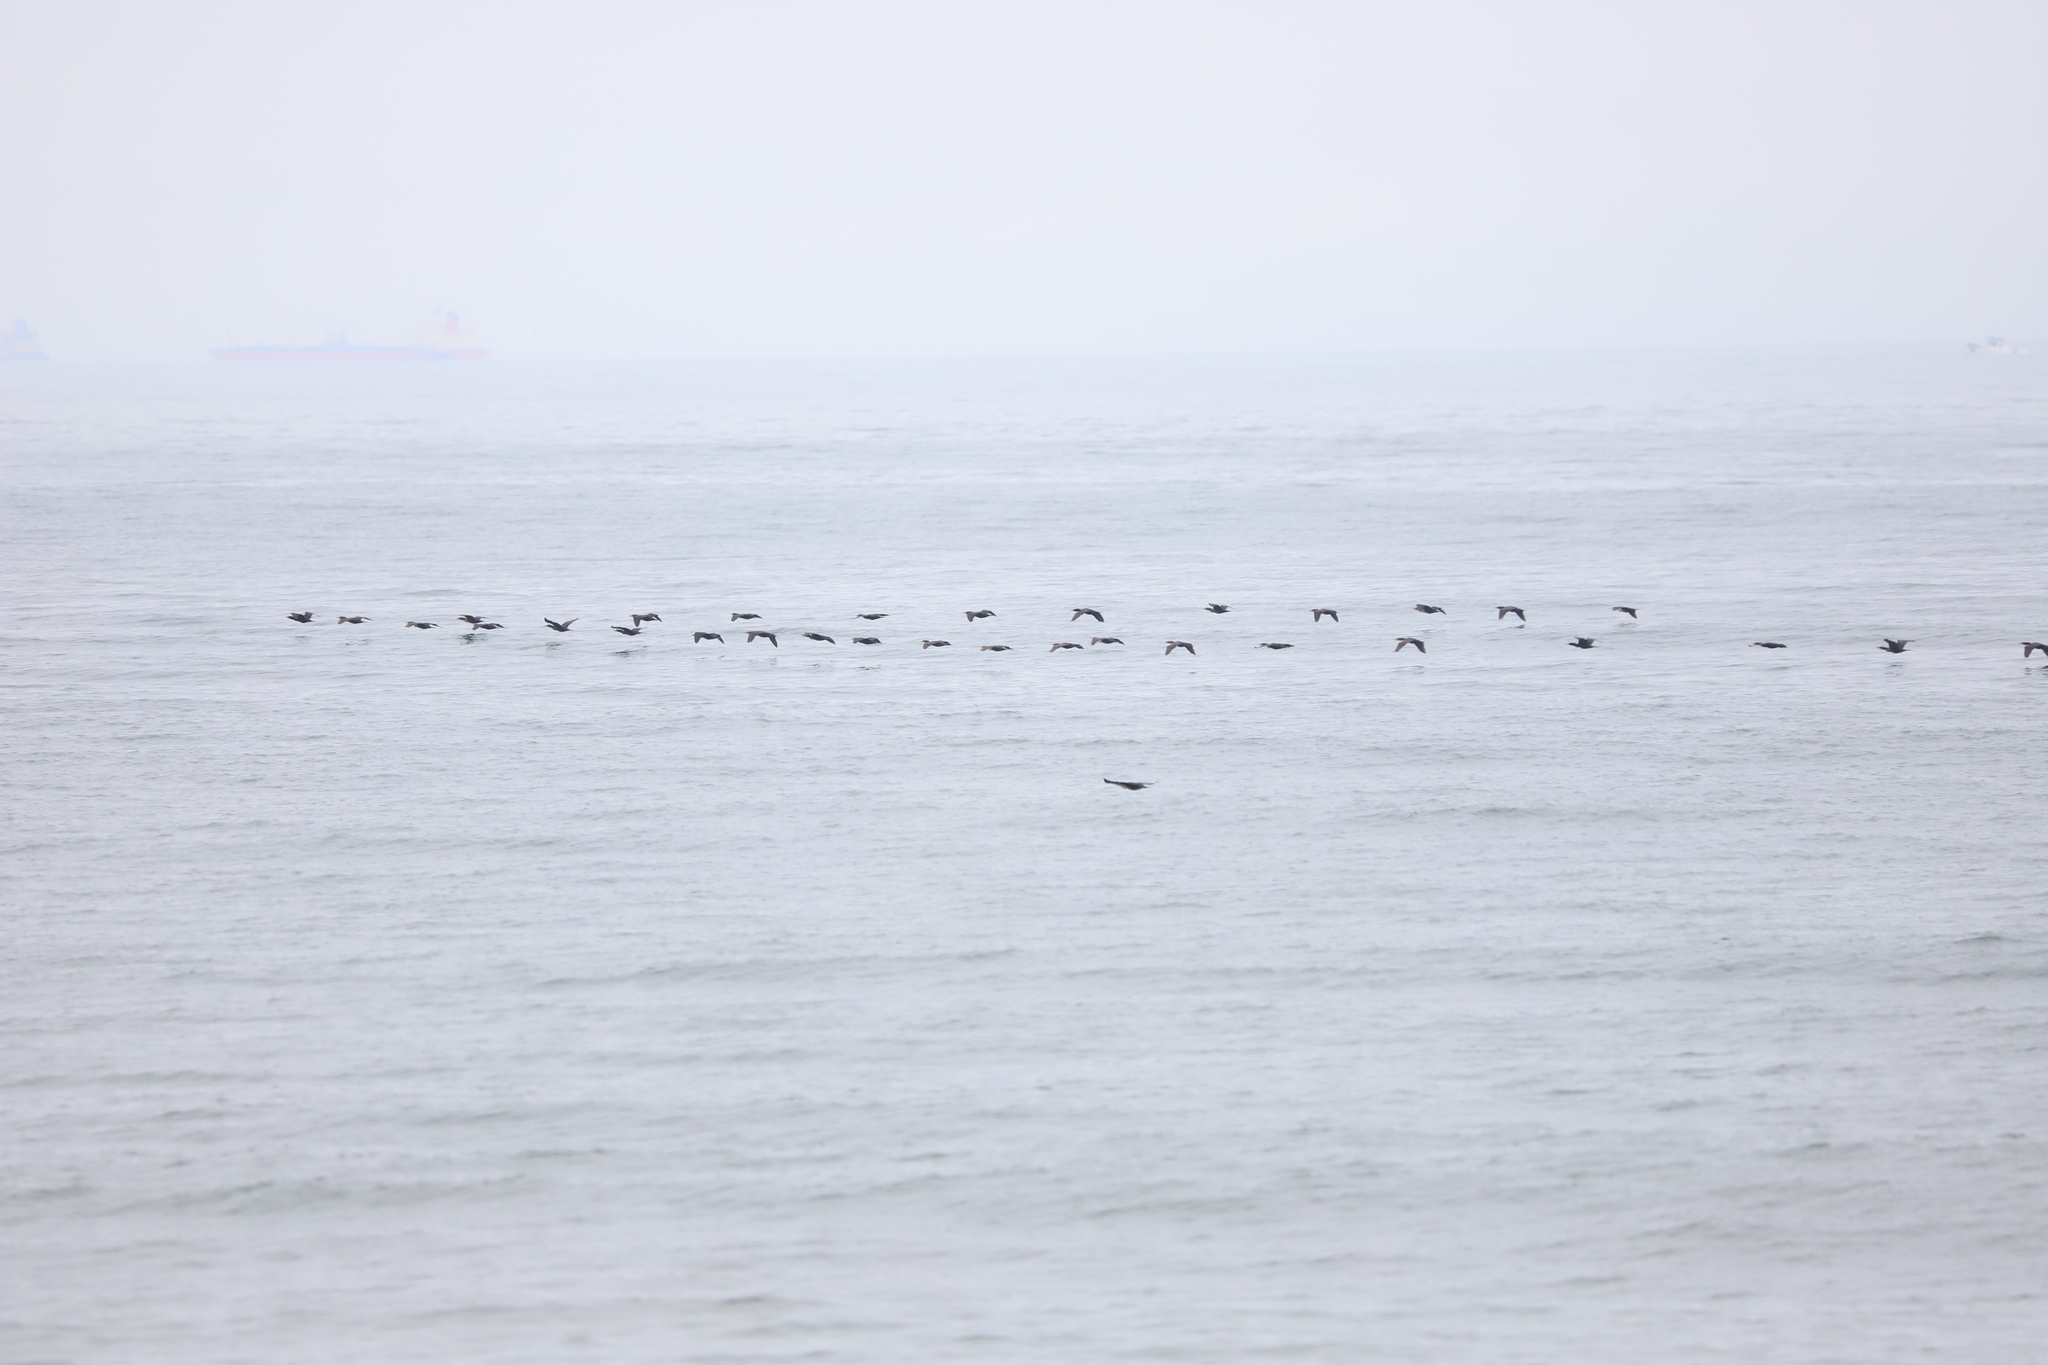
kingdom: Animalia
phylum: Chordata
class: Aves
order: Suliformes
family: Phalacrocoracidae
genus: Phalacrocorax
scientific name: Phalacrocorax auritus
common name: Double-crested cormorant
